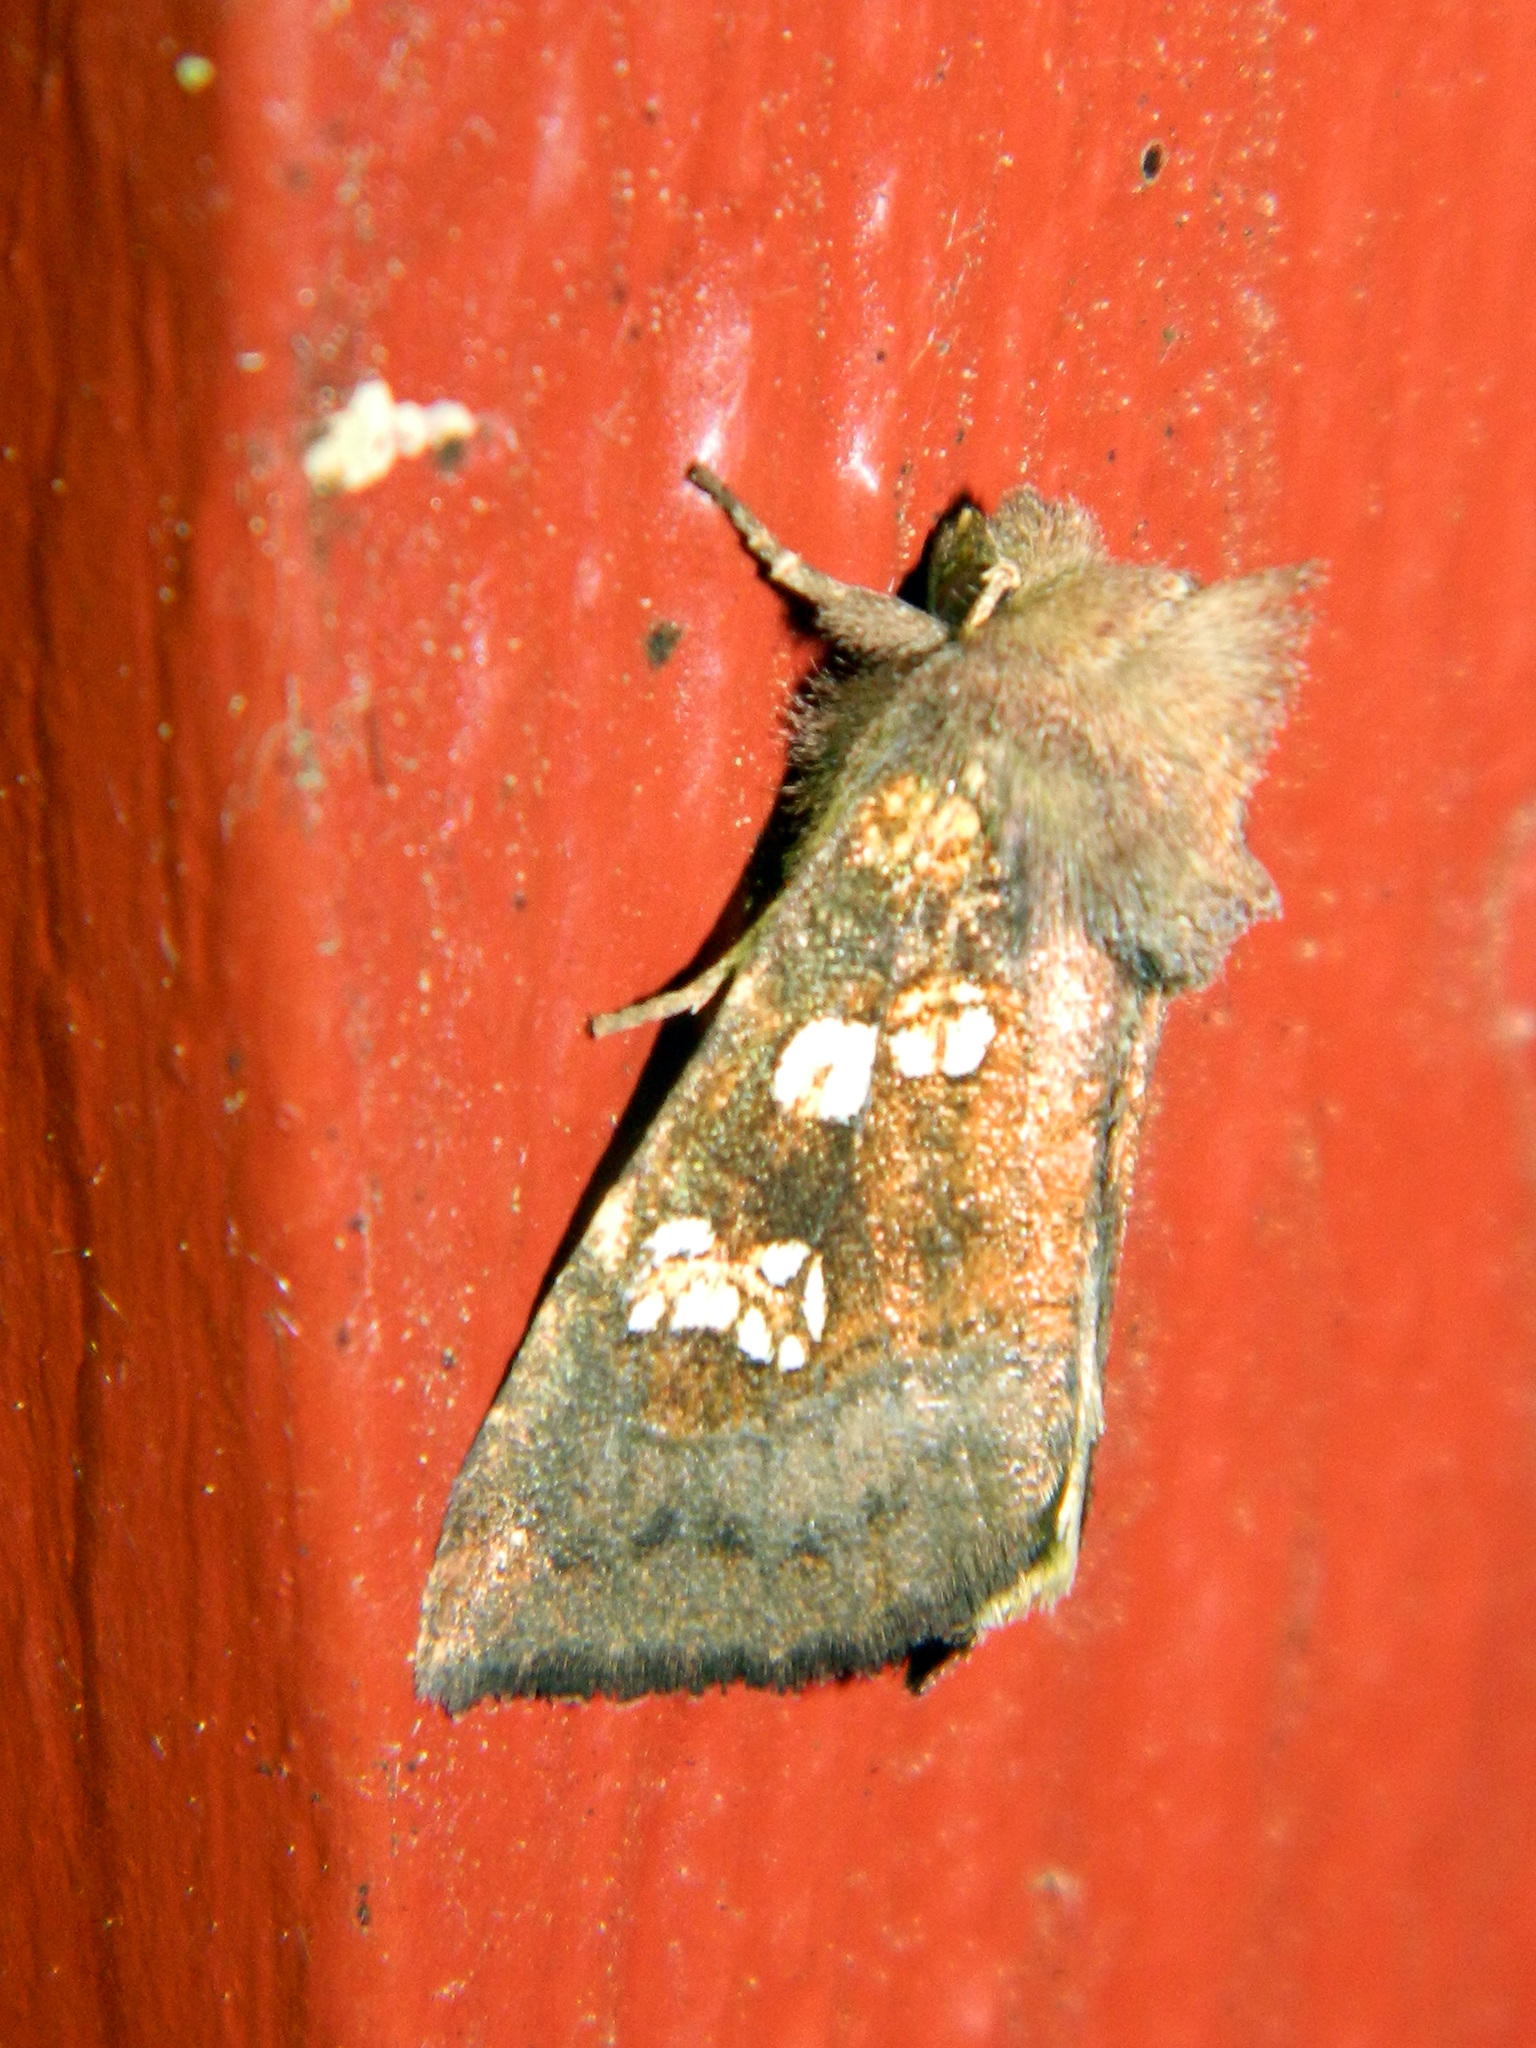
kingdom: Animalia
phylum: Arthropoda
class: Insecta
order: Lepidoptera
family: Noctuidae
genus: Papaipema
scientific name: Papaipema unimoda
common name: Meadow rue borer moth
